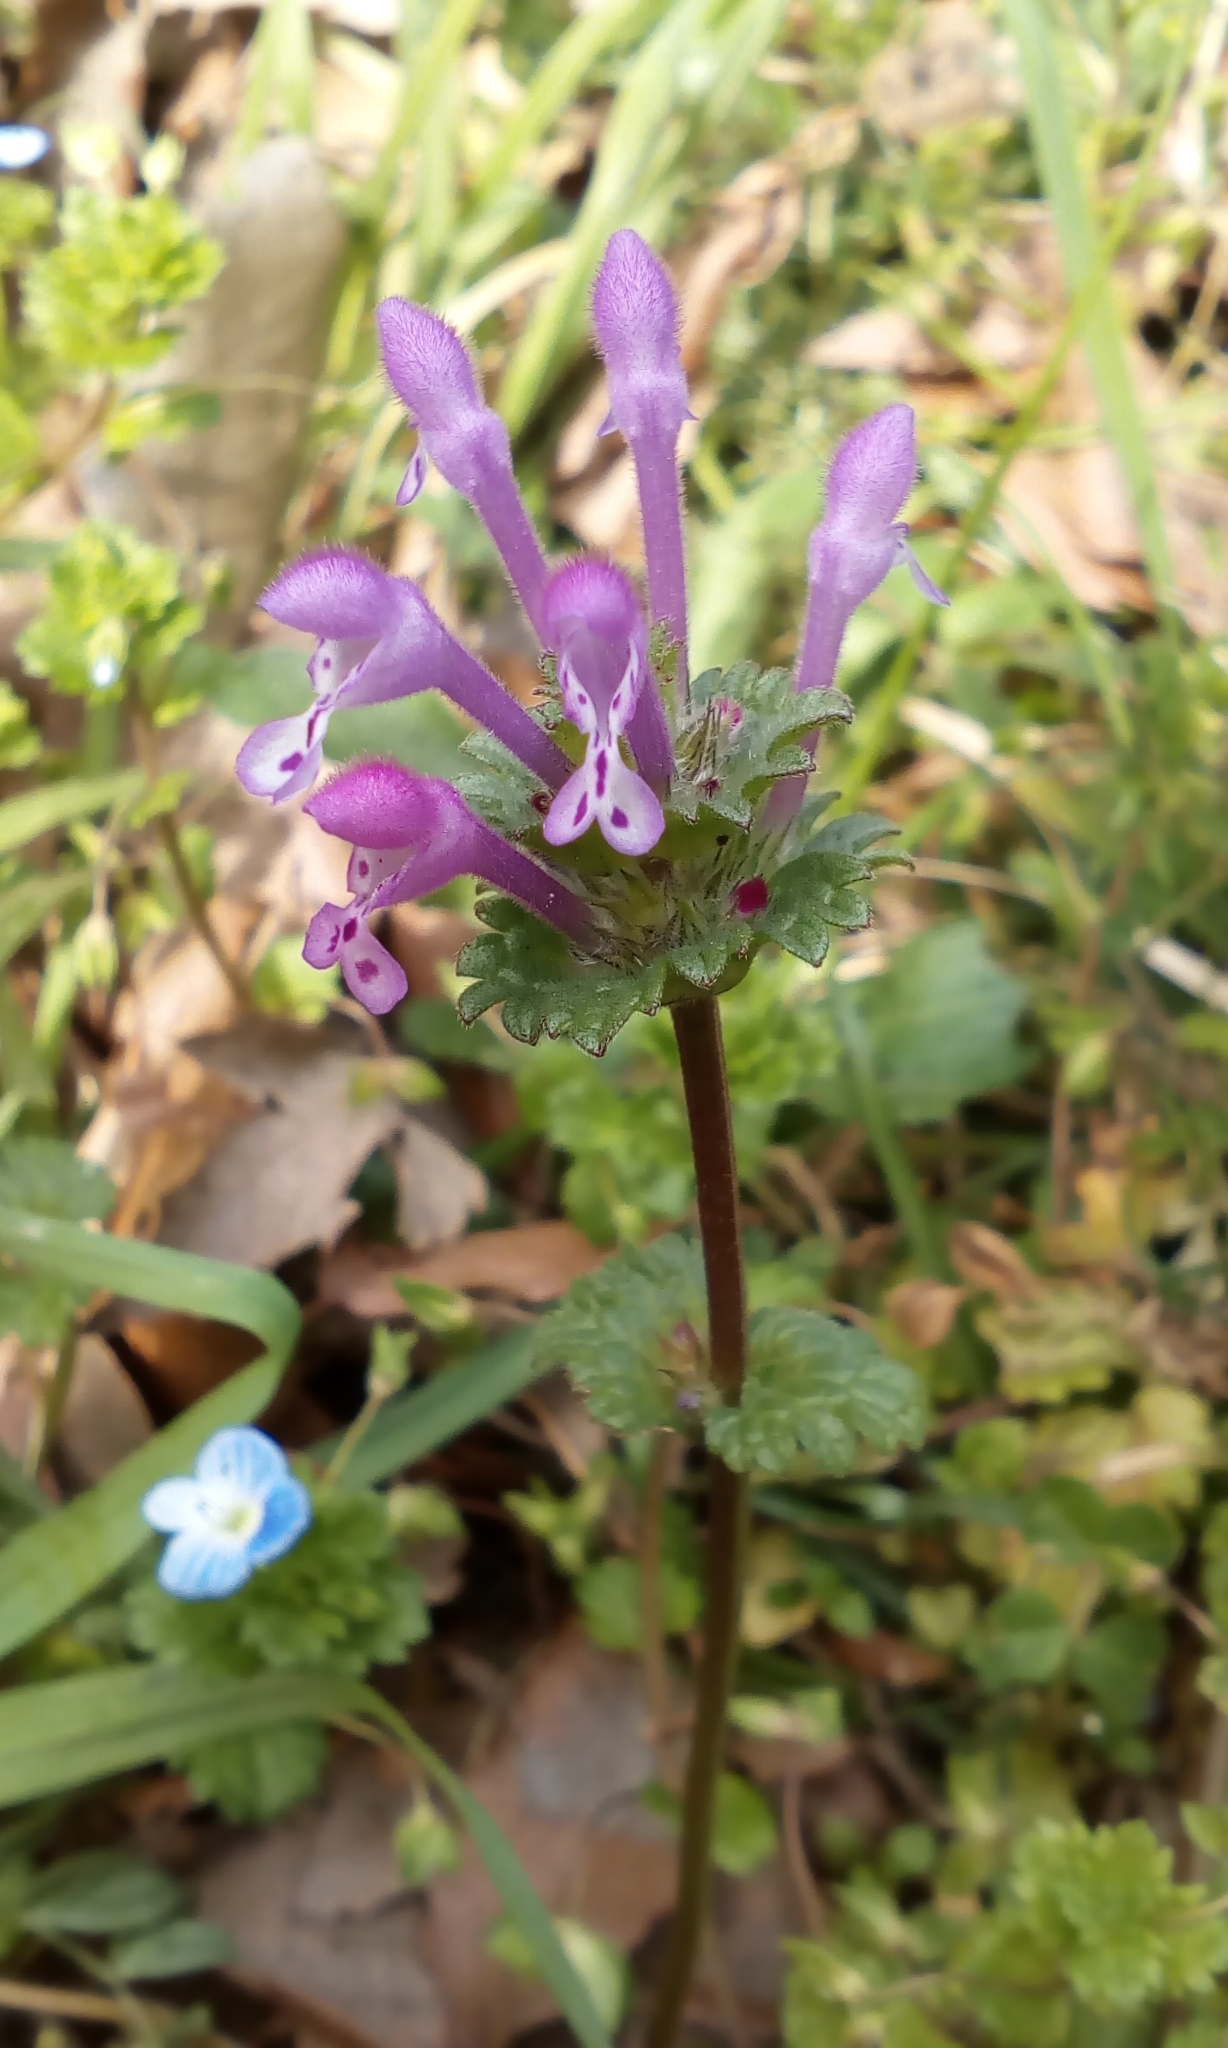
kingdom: Plantae
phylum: Tracheophyta
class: Magnoliopsida
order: Lamiales
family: Lamiaceae
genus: Lamium
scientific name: Lamium amplexicaule
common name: Henbit dead-nettle
